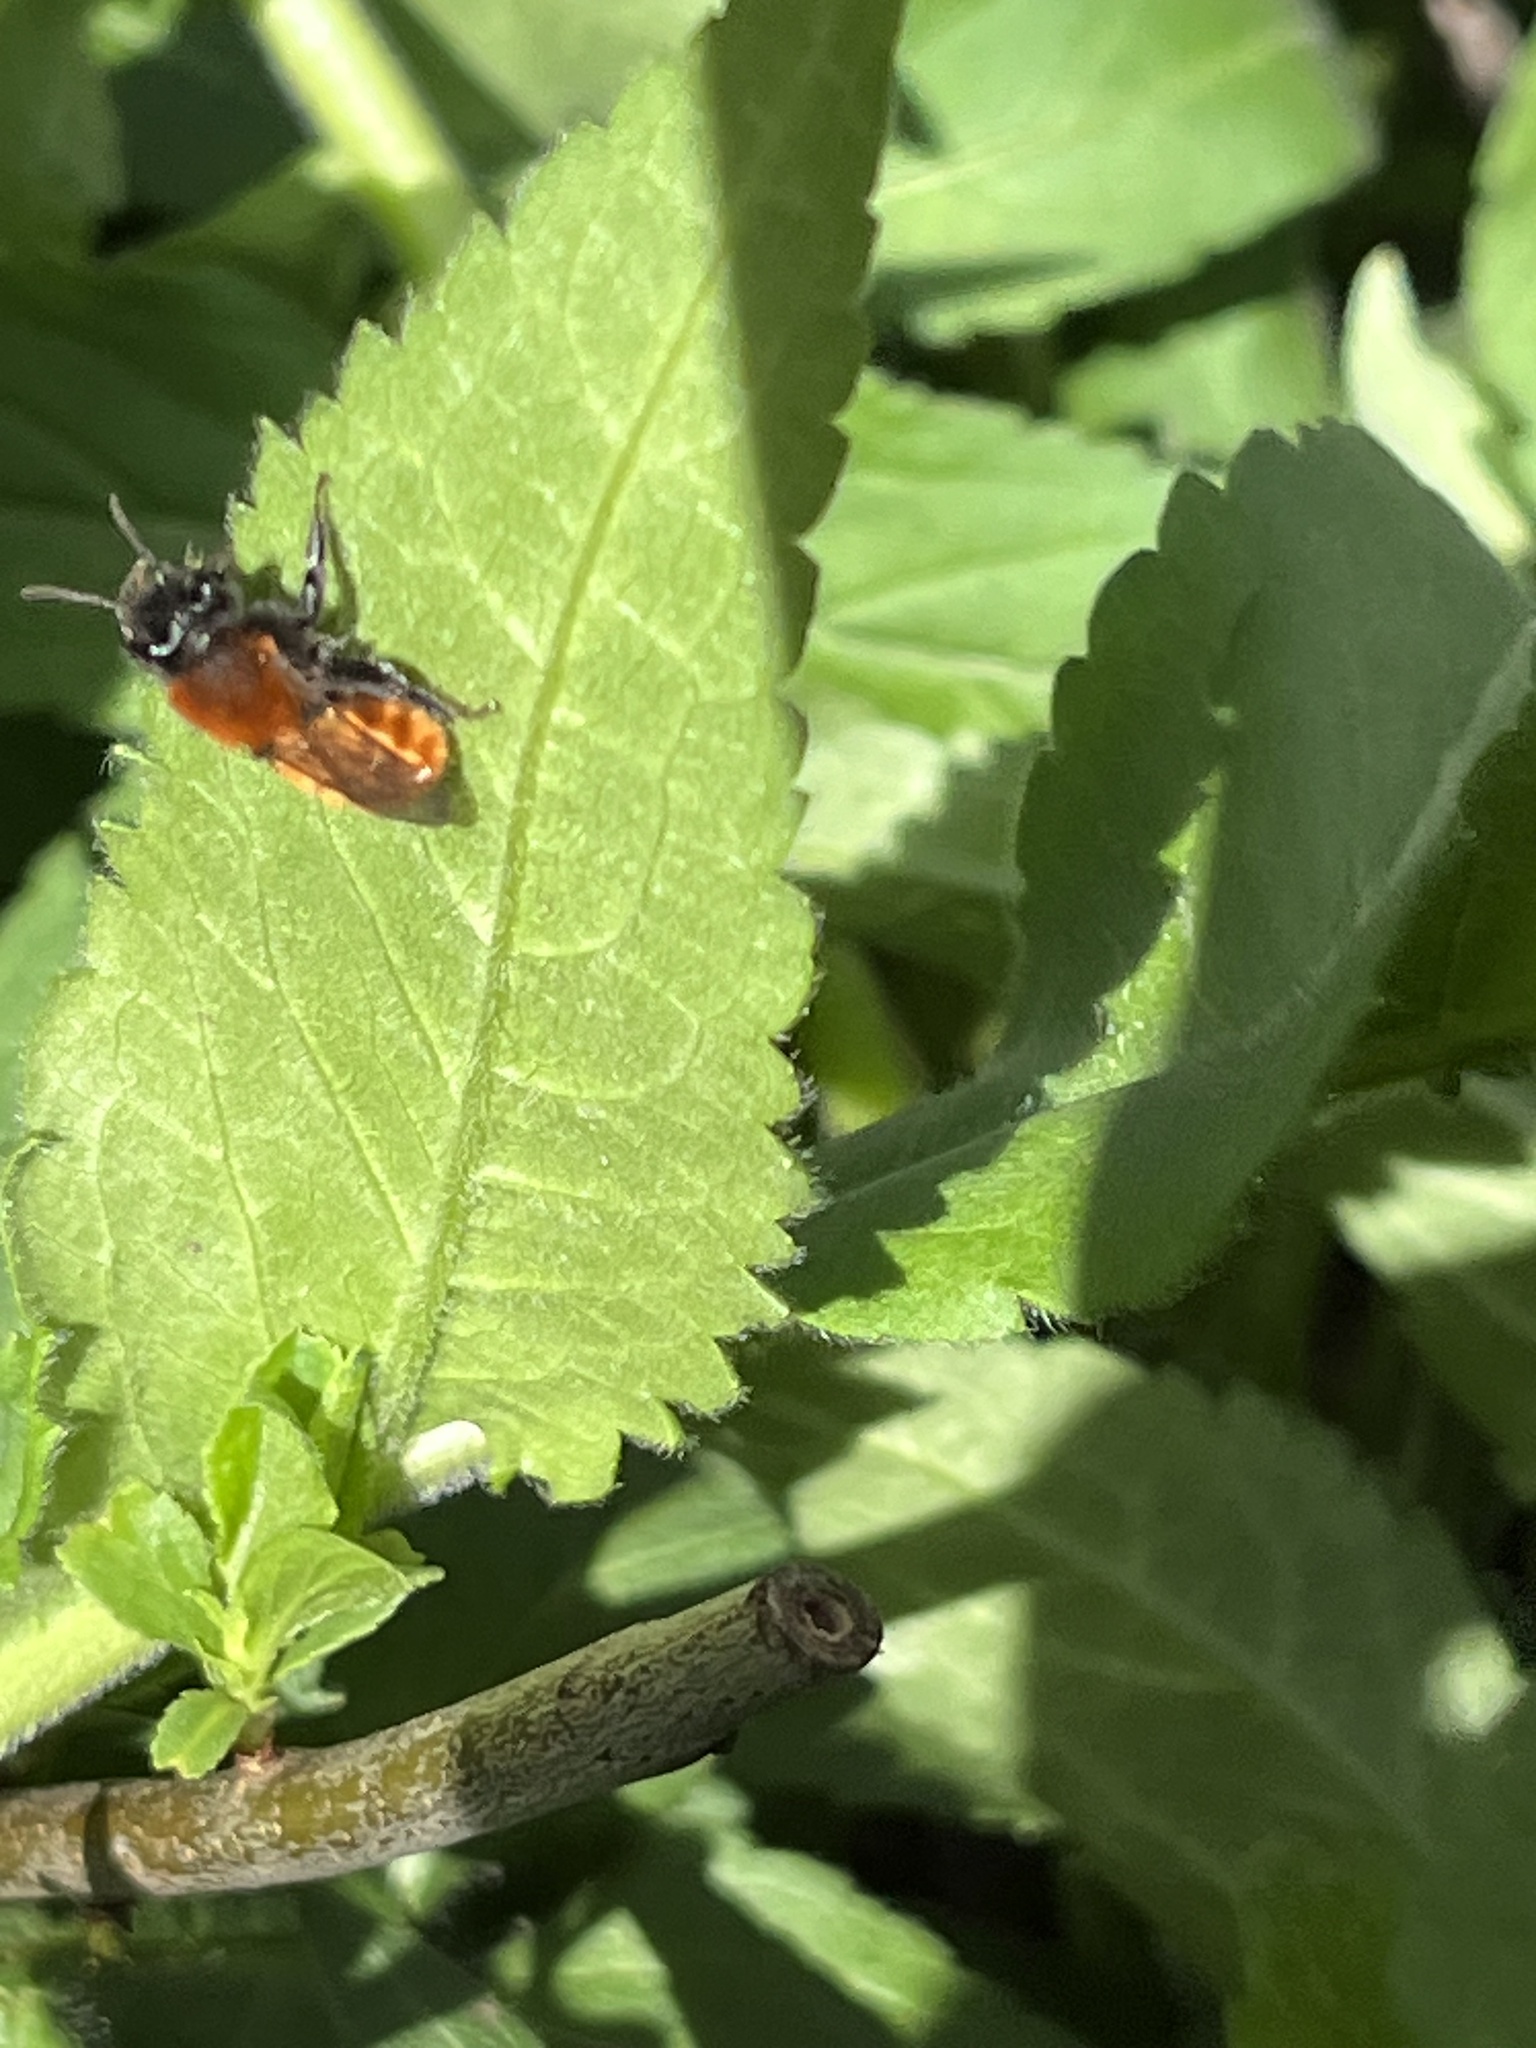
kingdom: Animalia
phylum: Arthropoda
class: Insecta
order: Hymenoptera
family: Andrenidae
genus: Andrena
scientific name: Andrena fulva
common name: Tawny mining bee
